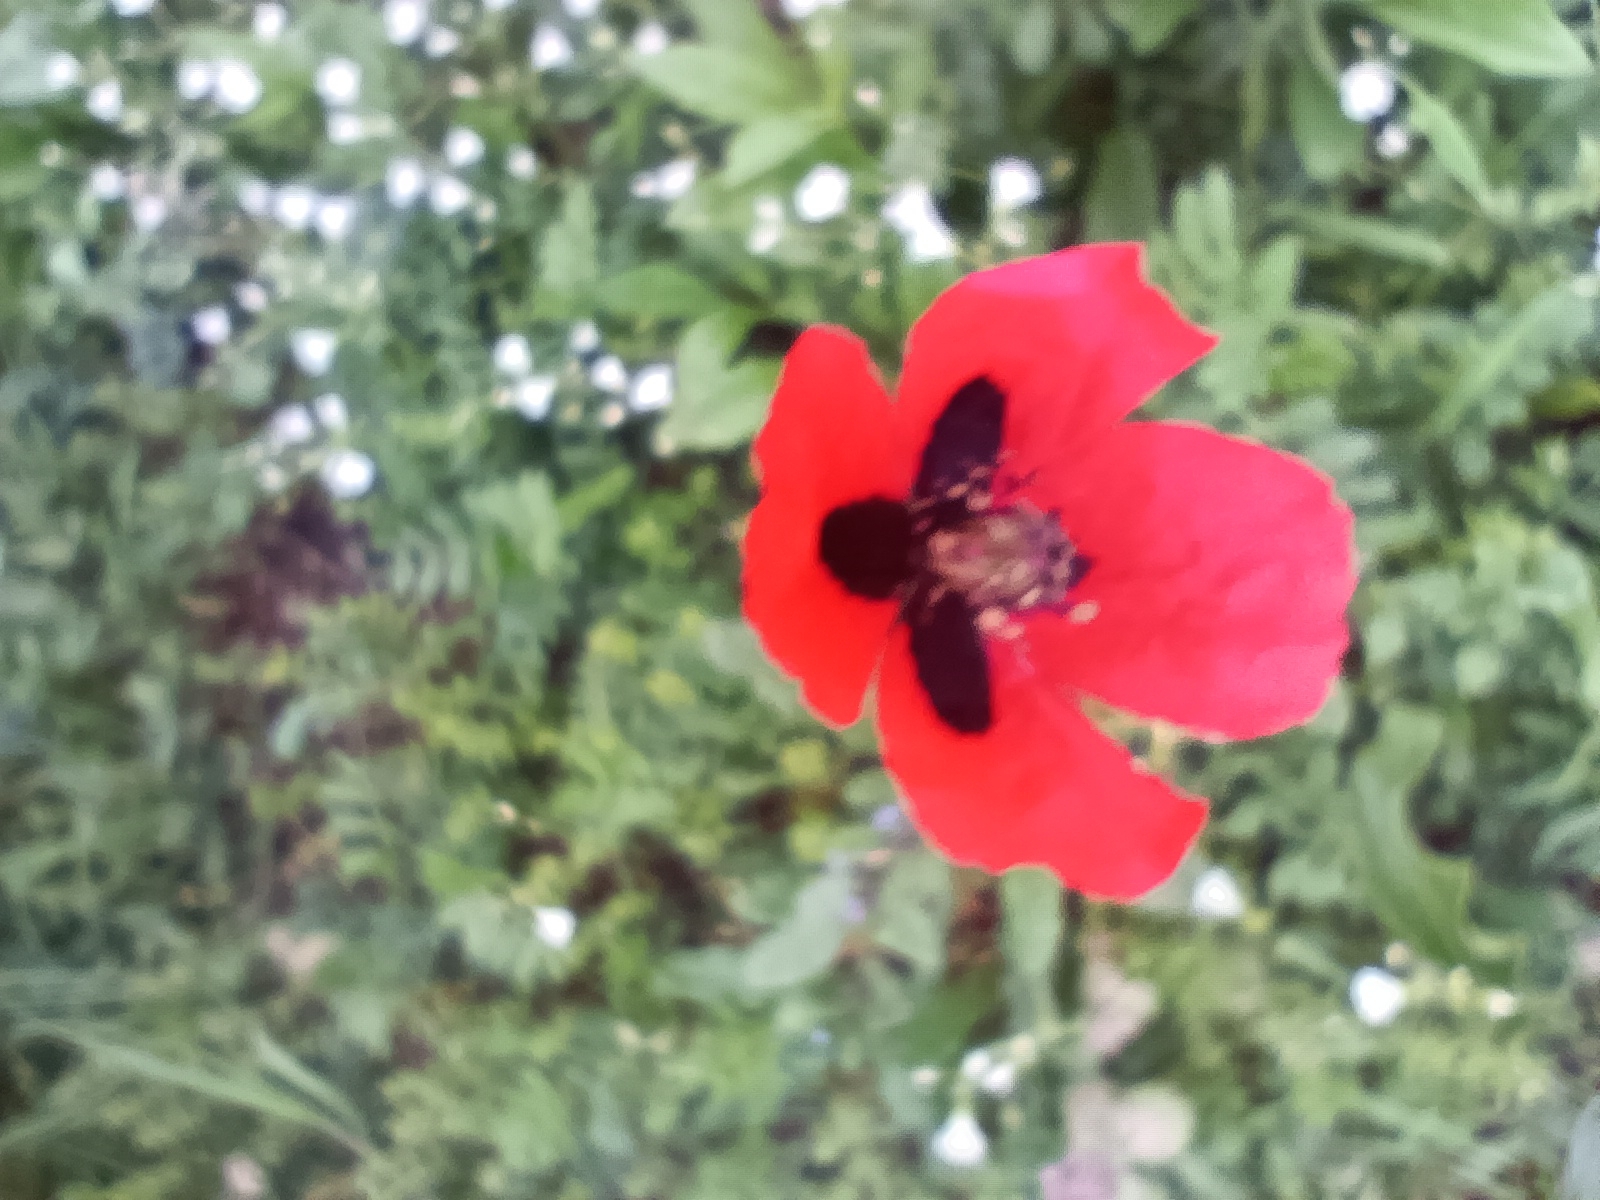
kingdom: Plantae
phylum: Tracheophyta
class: Magnoliopsida
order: Ranunculales
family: Papaveraceae
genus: Papaver
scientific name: Papaver dubium
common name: Long-headed poppy
